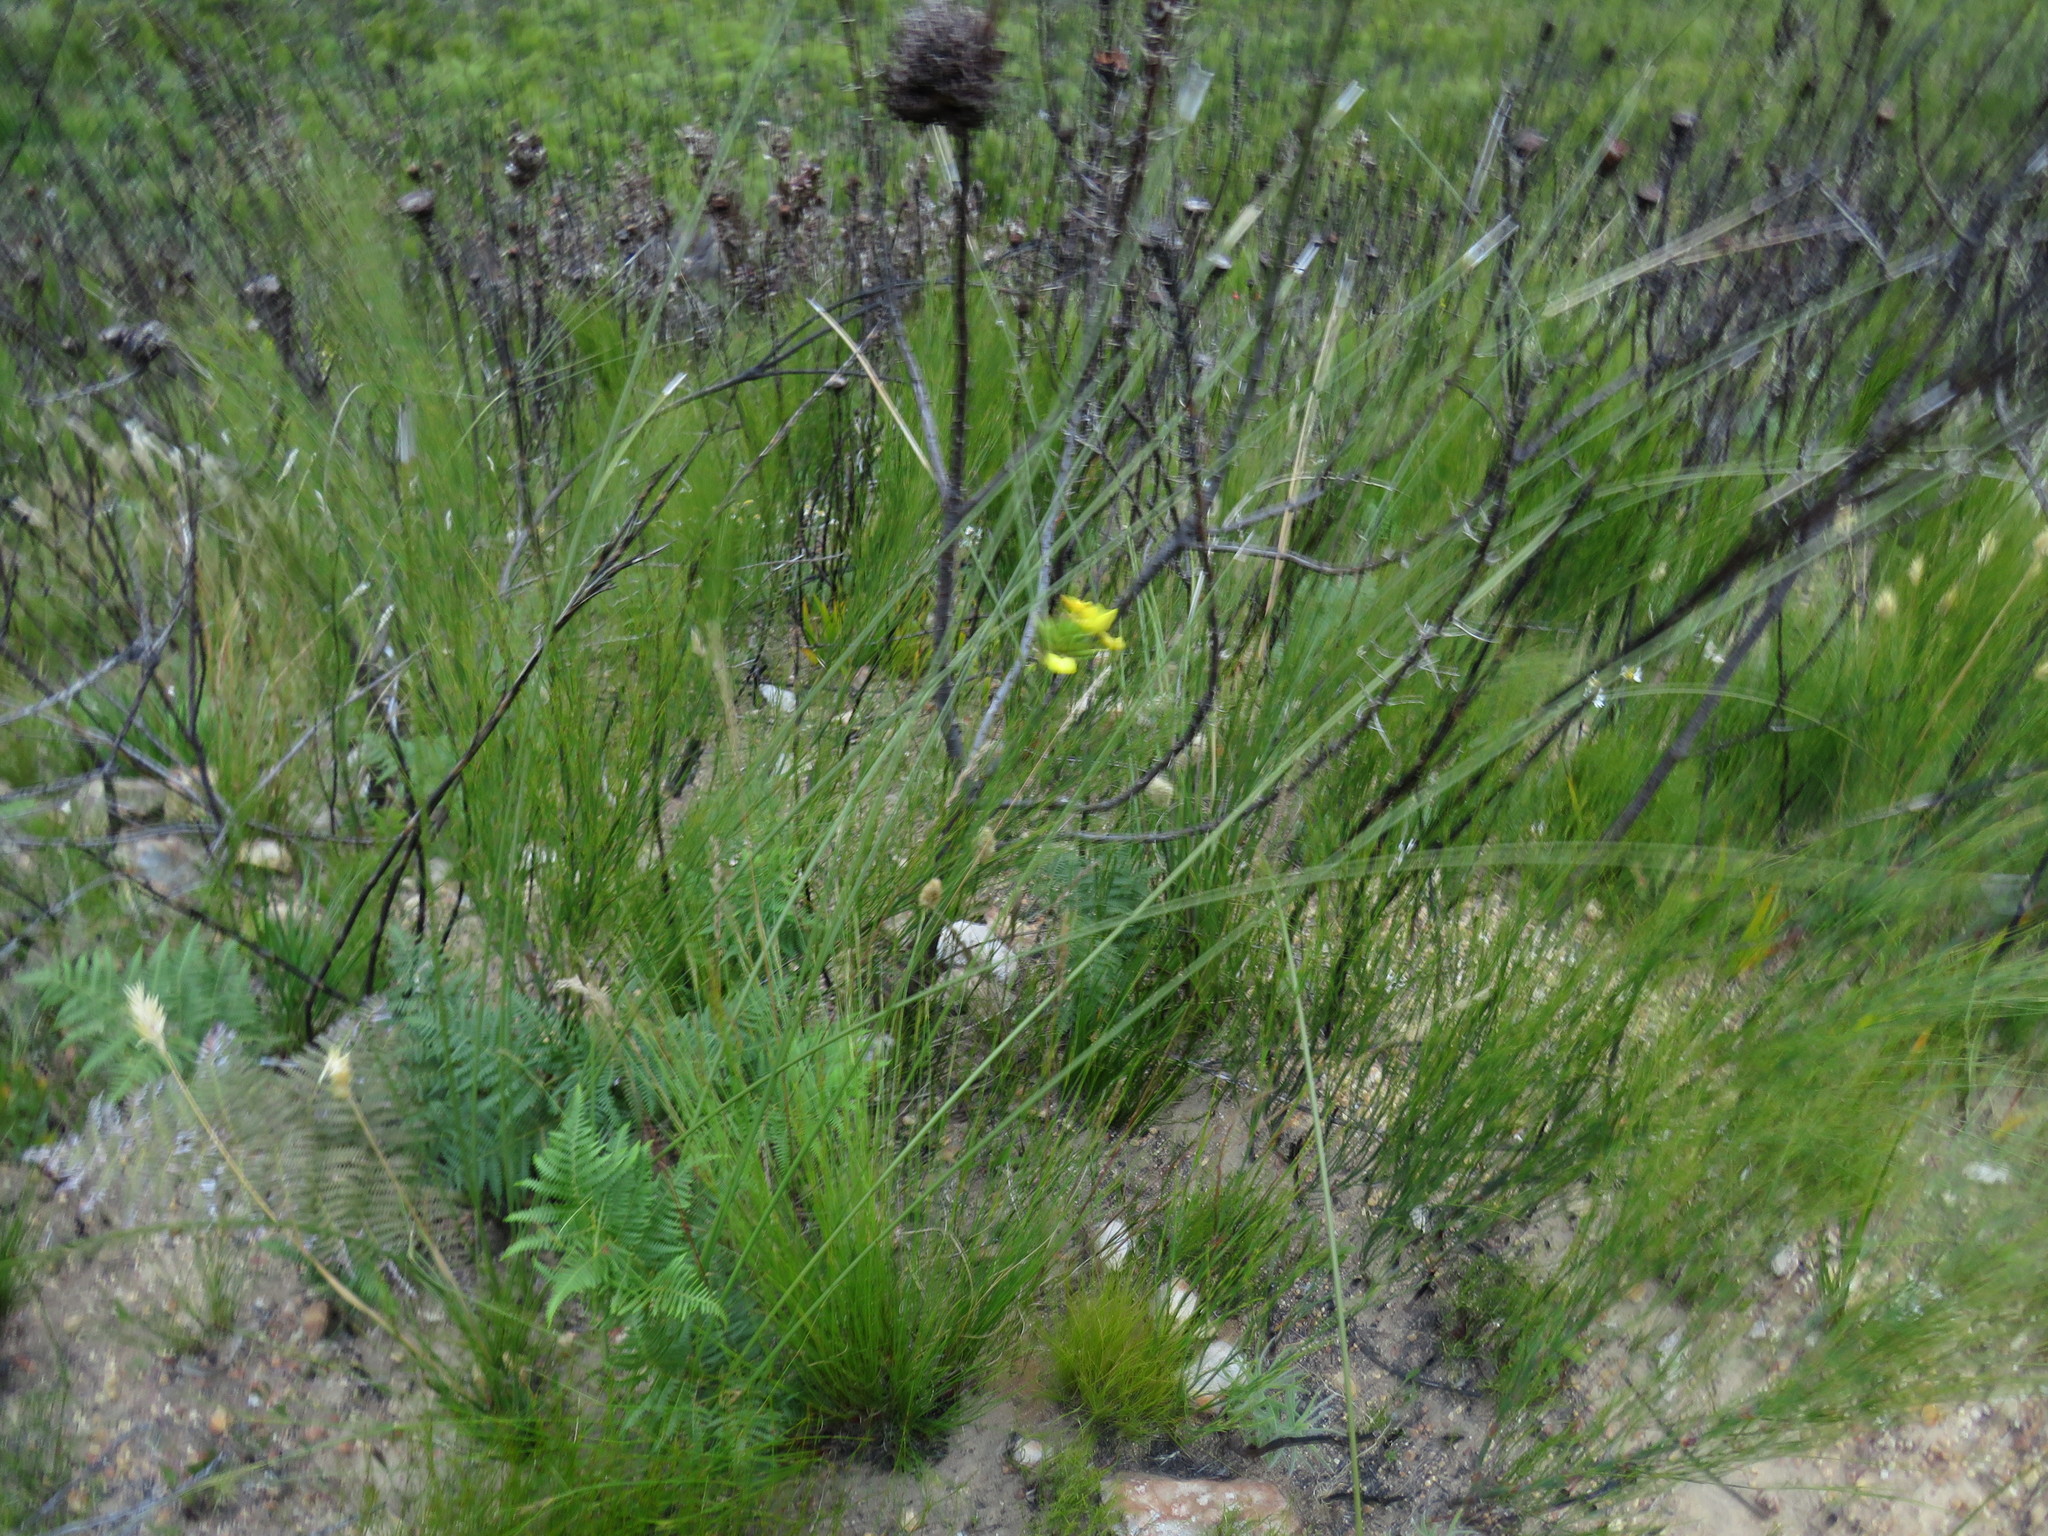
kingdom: Plantae
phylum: Tracheophyta
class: Liliopsida
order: Asparagales
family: Iridaceae
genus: Bobartia
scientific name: Bobartia indica
